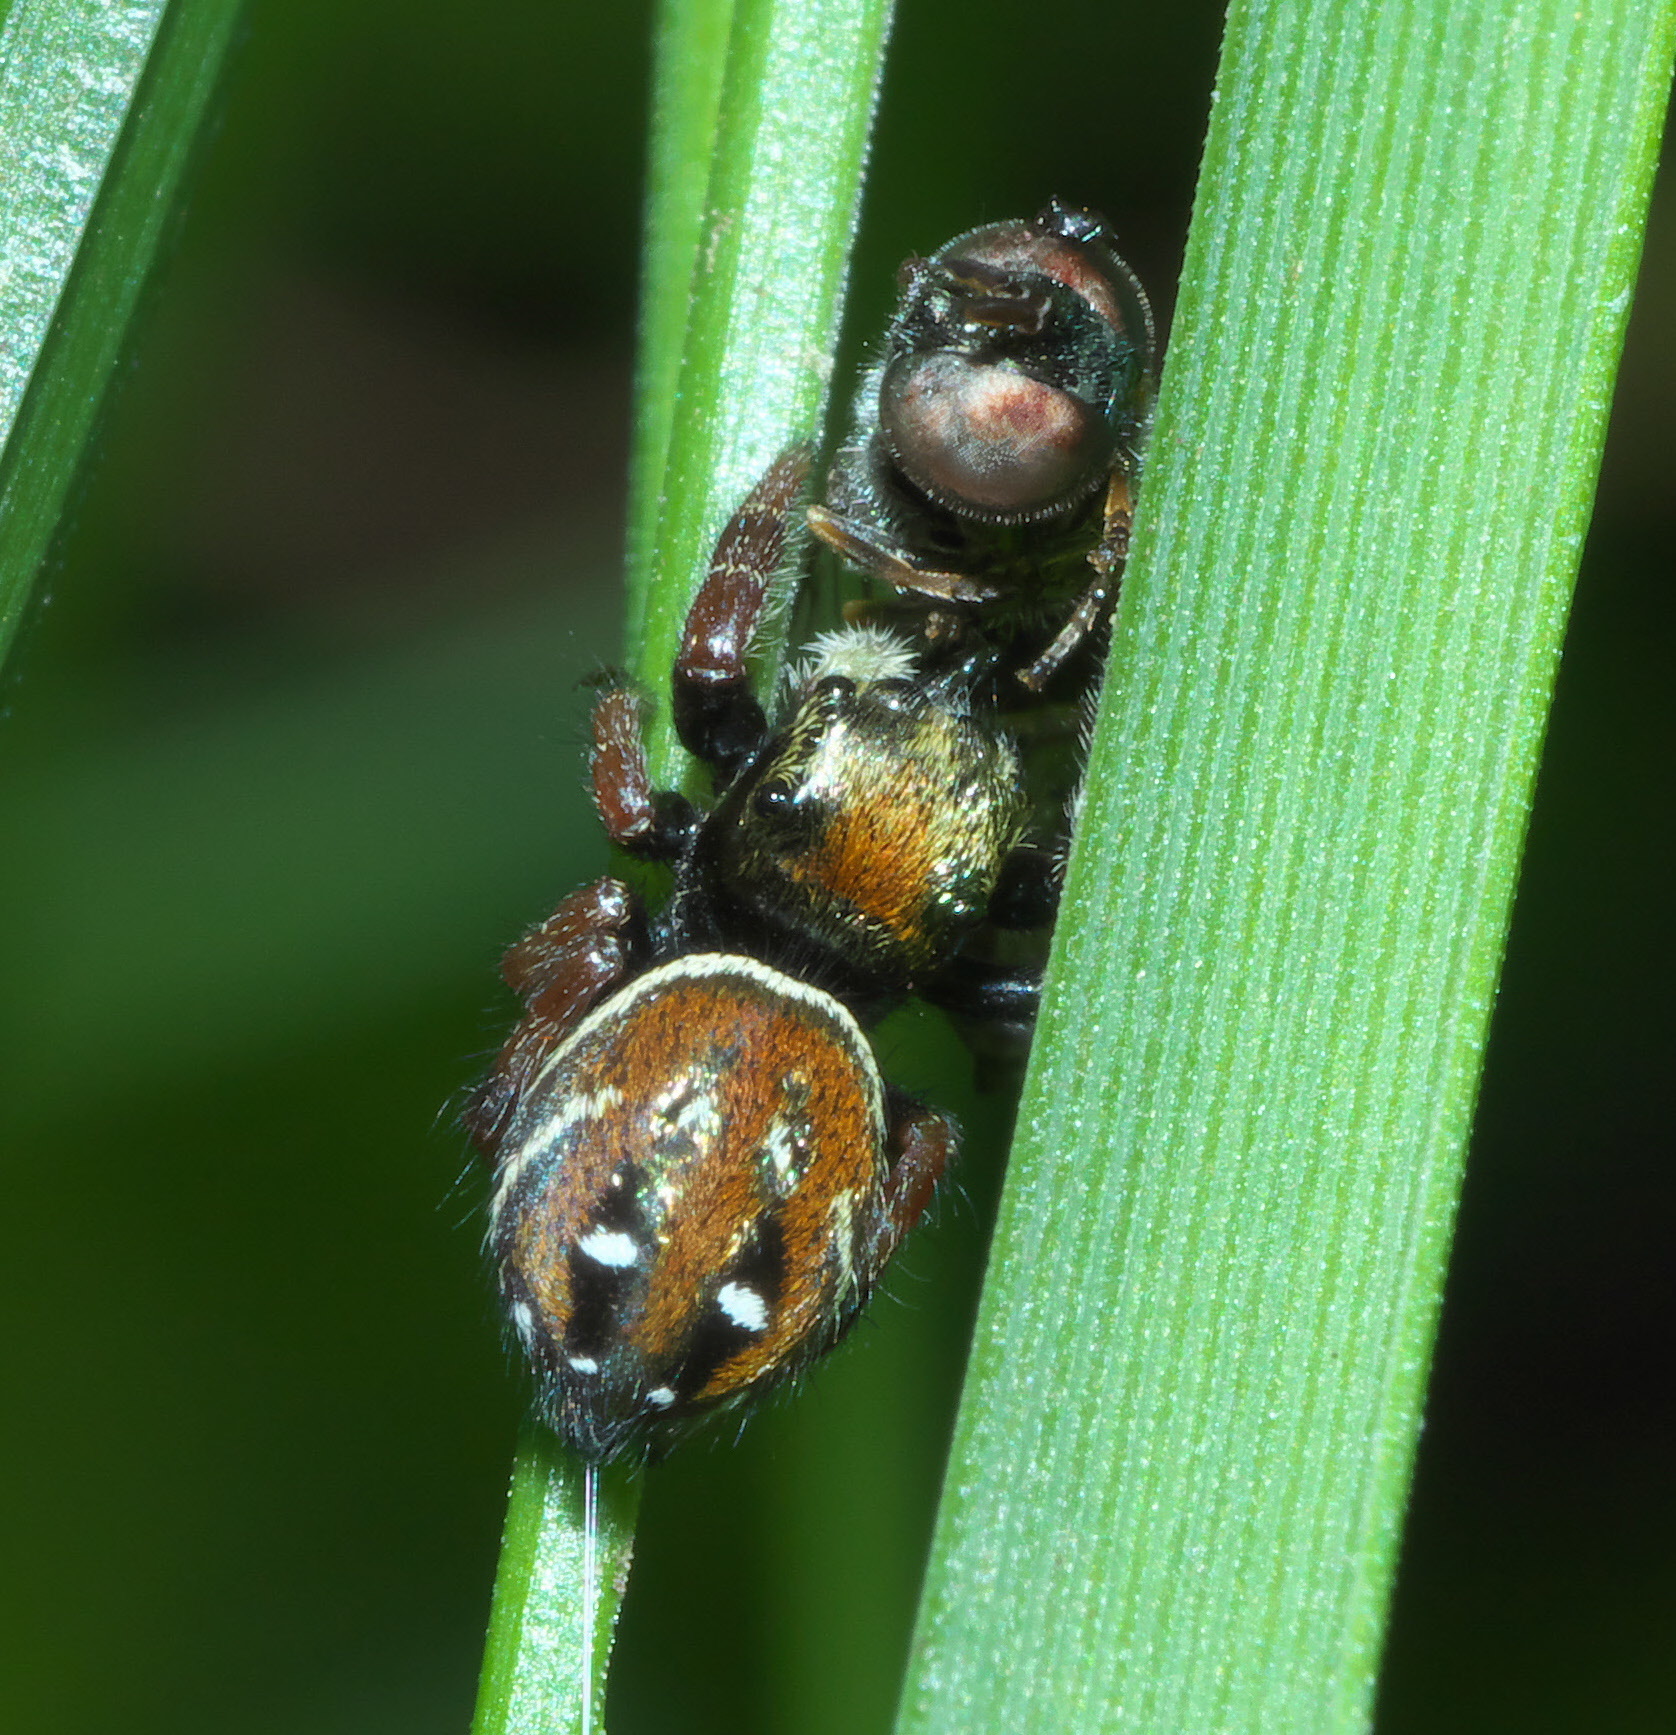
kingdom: Animalia
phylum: Arthropoda
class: Arachnida
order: Araneae
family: Salticidae
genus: Phidippus
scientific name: Phidippus whitmani
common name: Whitman's jumping spider
